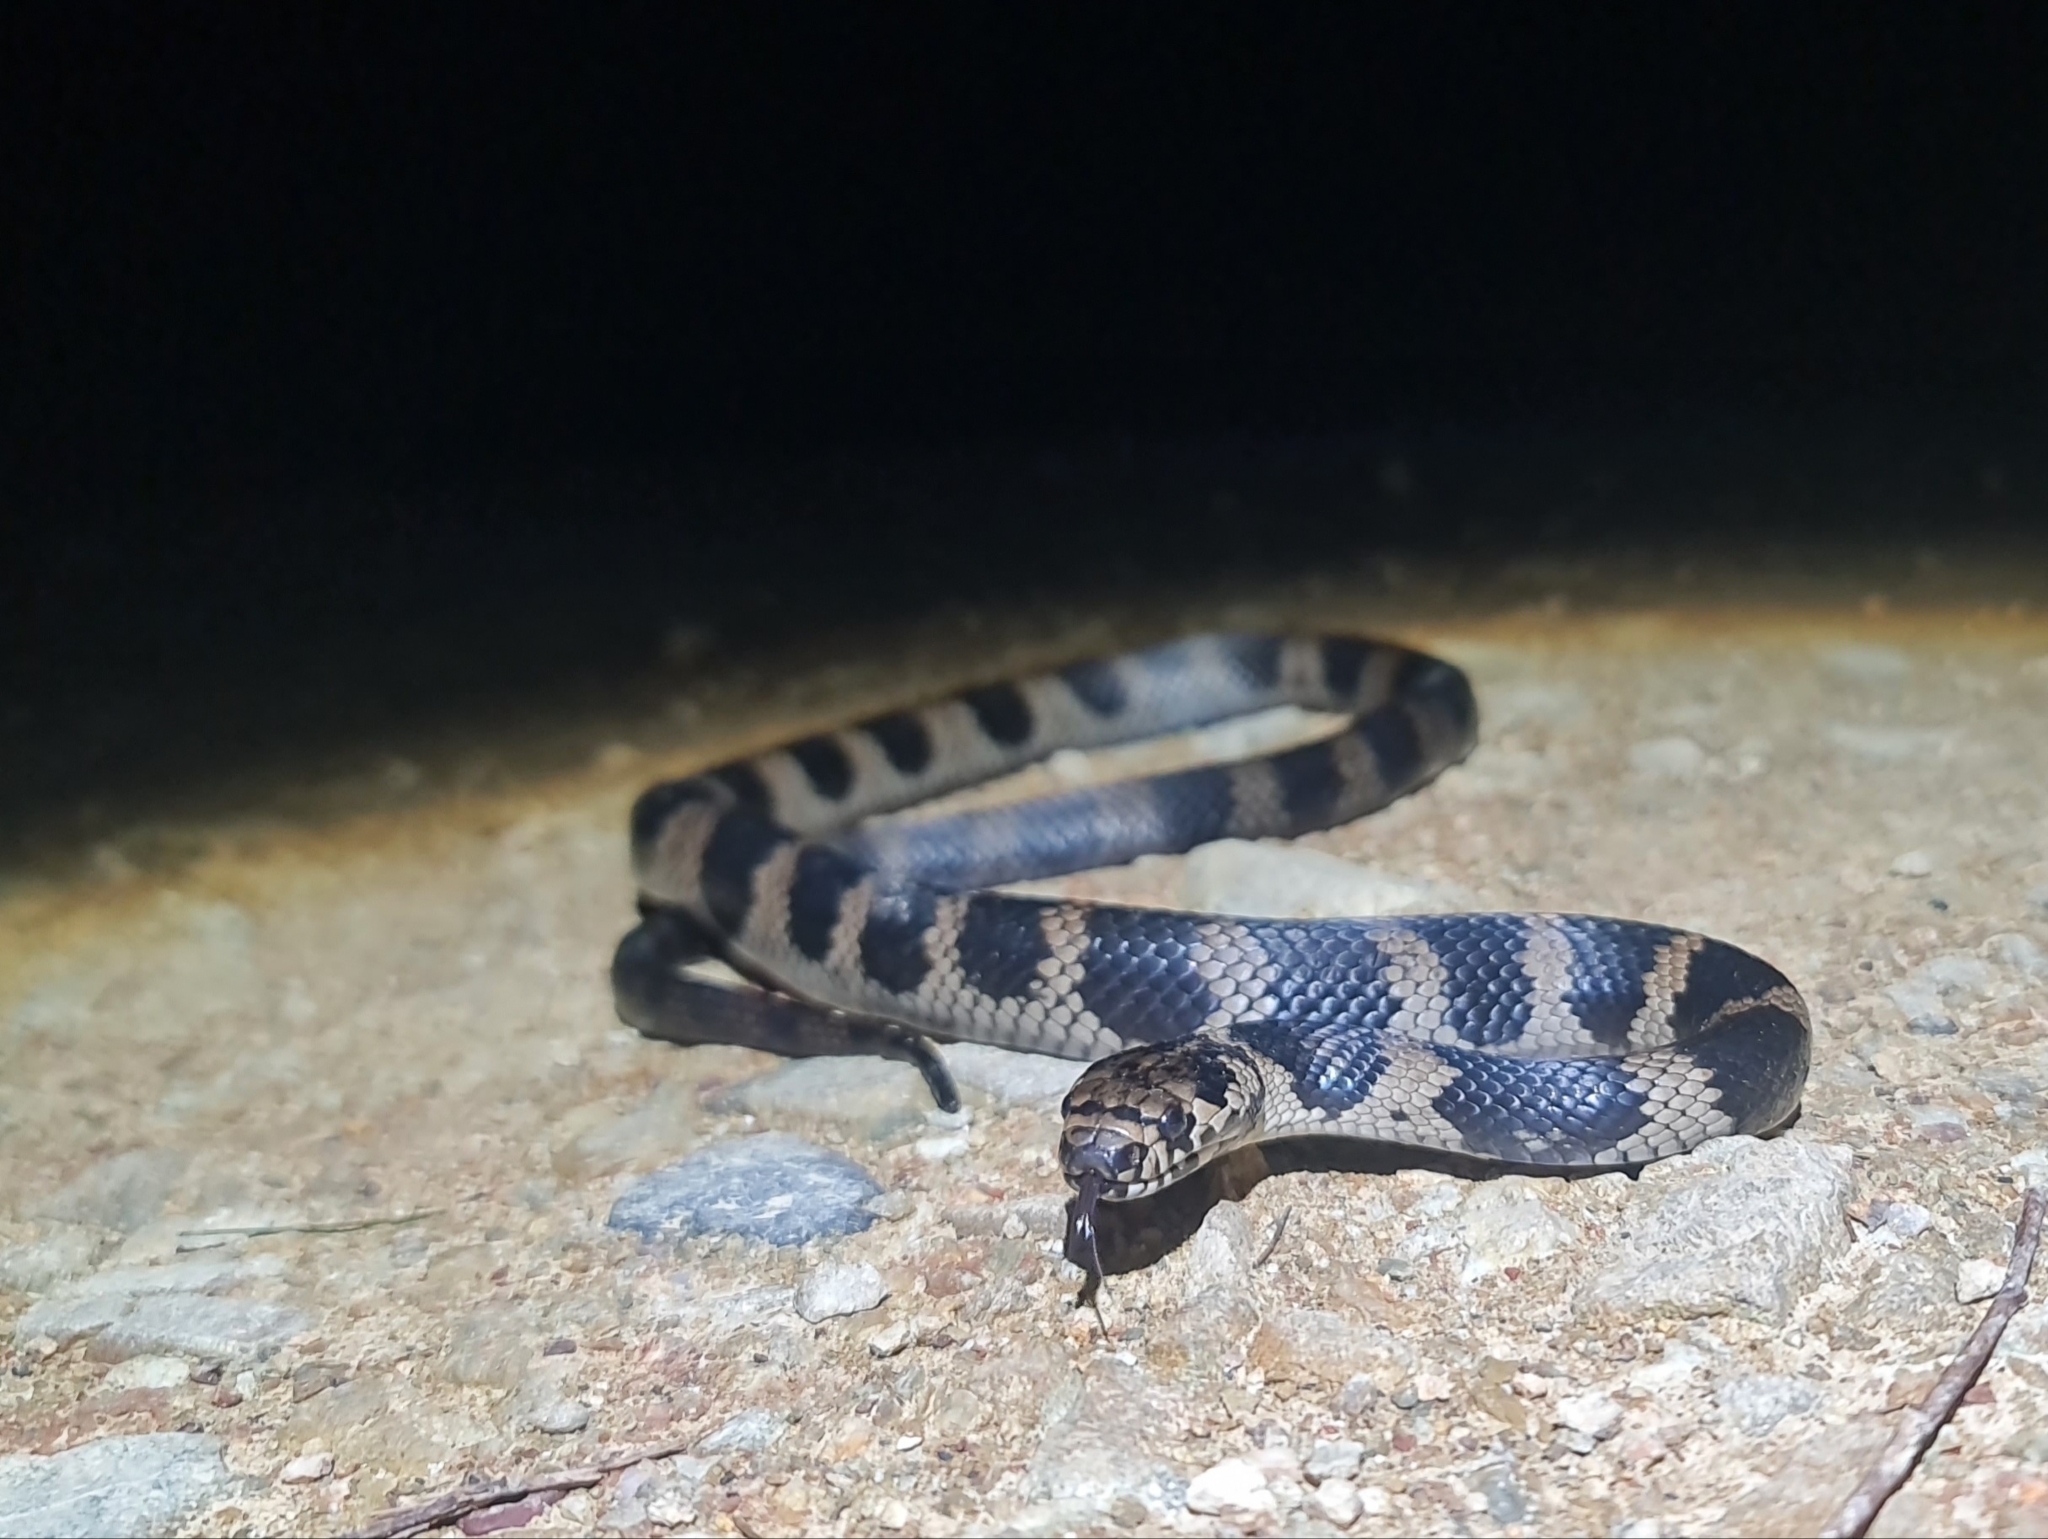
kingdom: Animalia
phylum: Chordata
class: Squamata
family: Elapidae
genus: Hoplocephalus
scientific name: Hoplocephalus stephensii
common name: Stephen's banded snake
